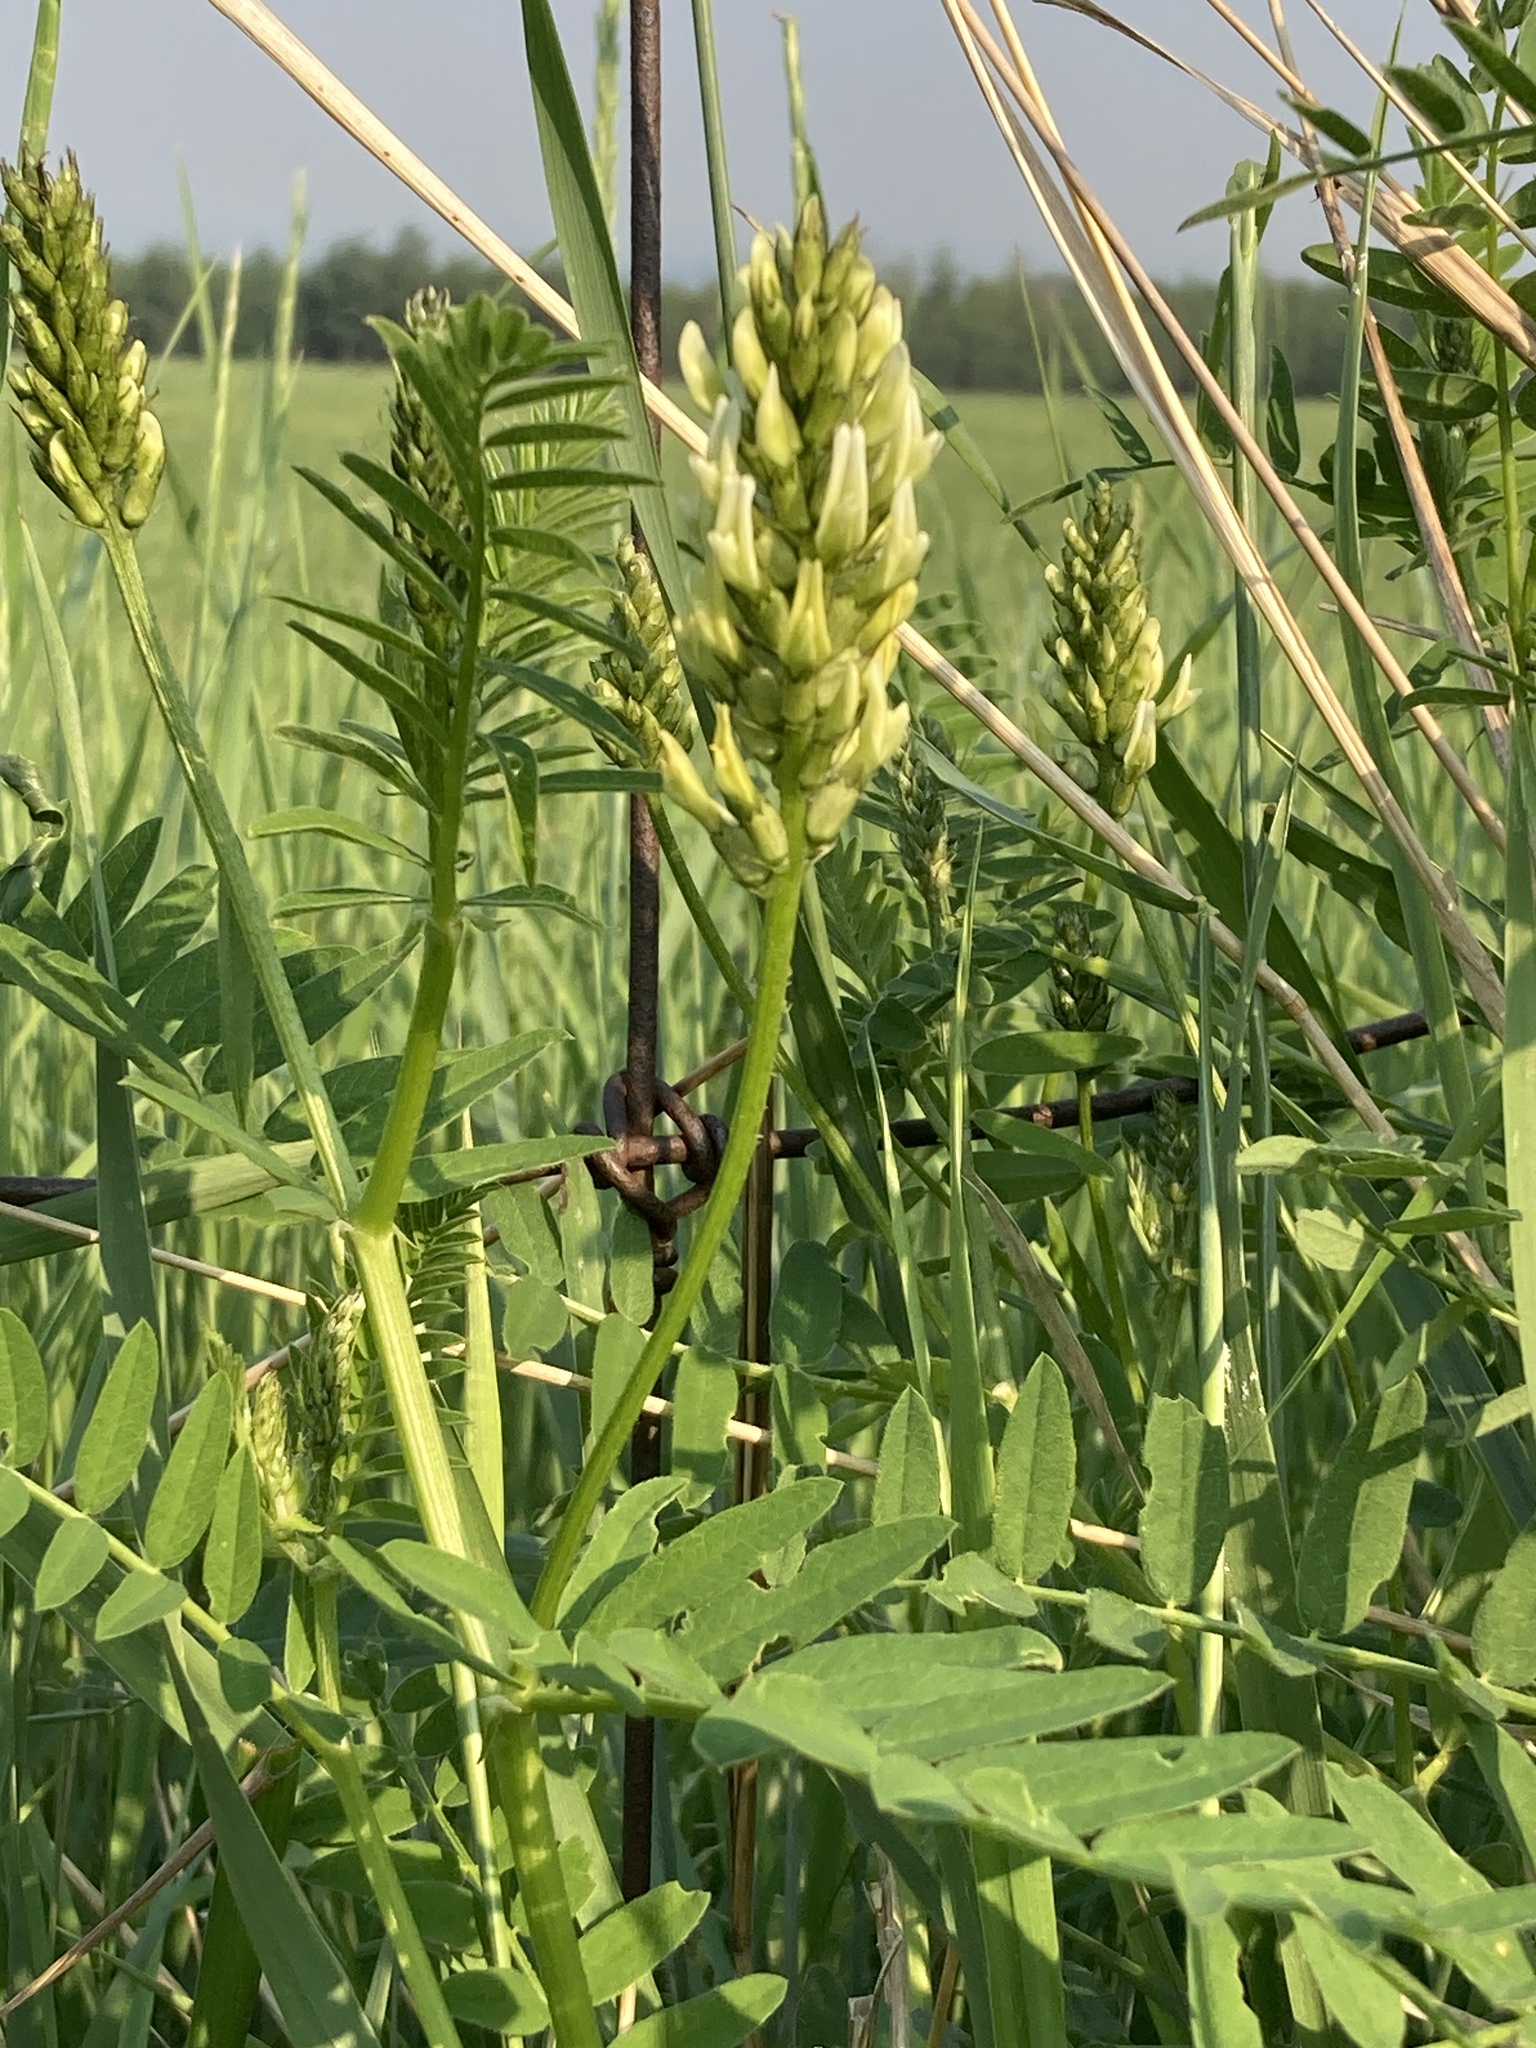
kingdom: Plantae
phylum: Tracheophyta
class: Magnoliopsida
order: Fabales
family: Fabaceae
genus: Astragalus
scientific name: Astragalus cicer
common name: Chick-pea milk-vetch
